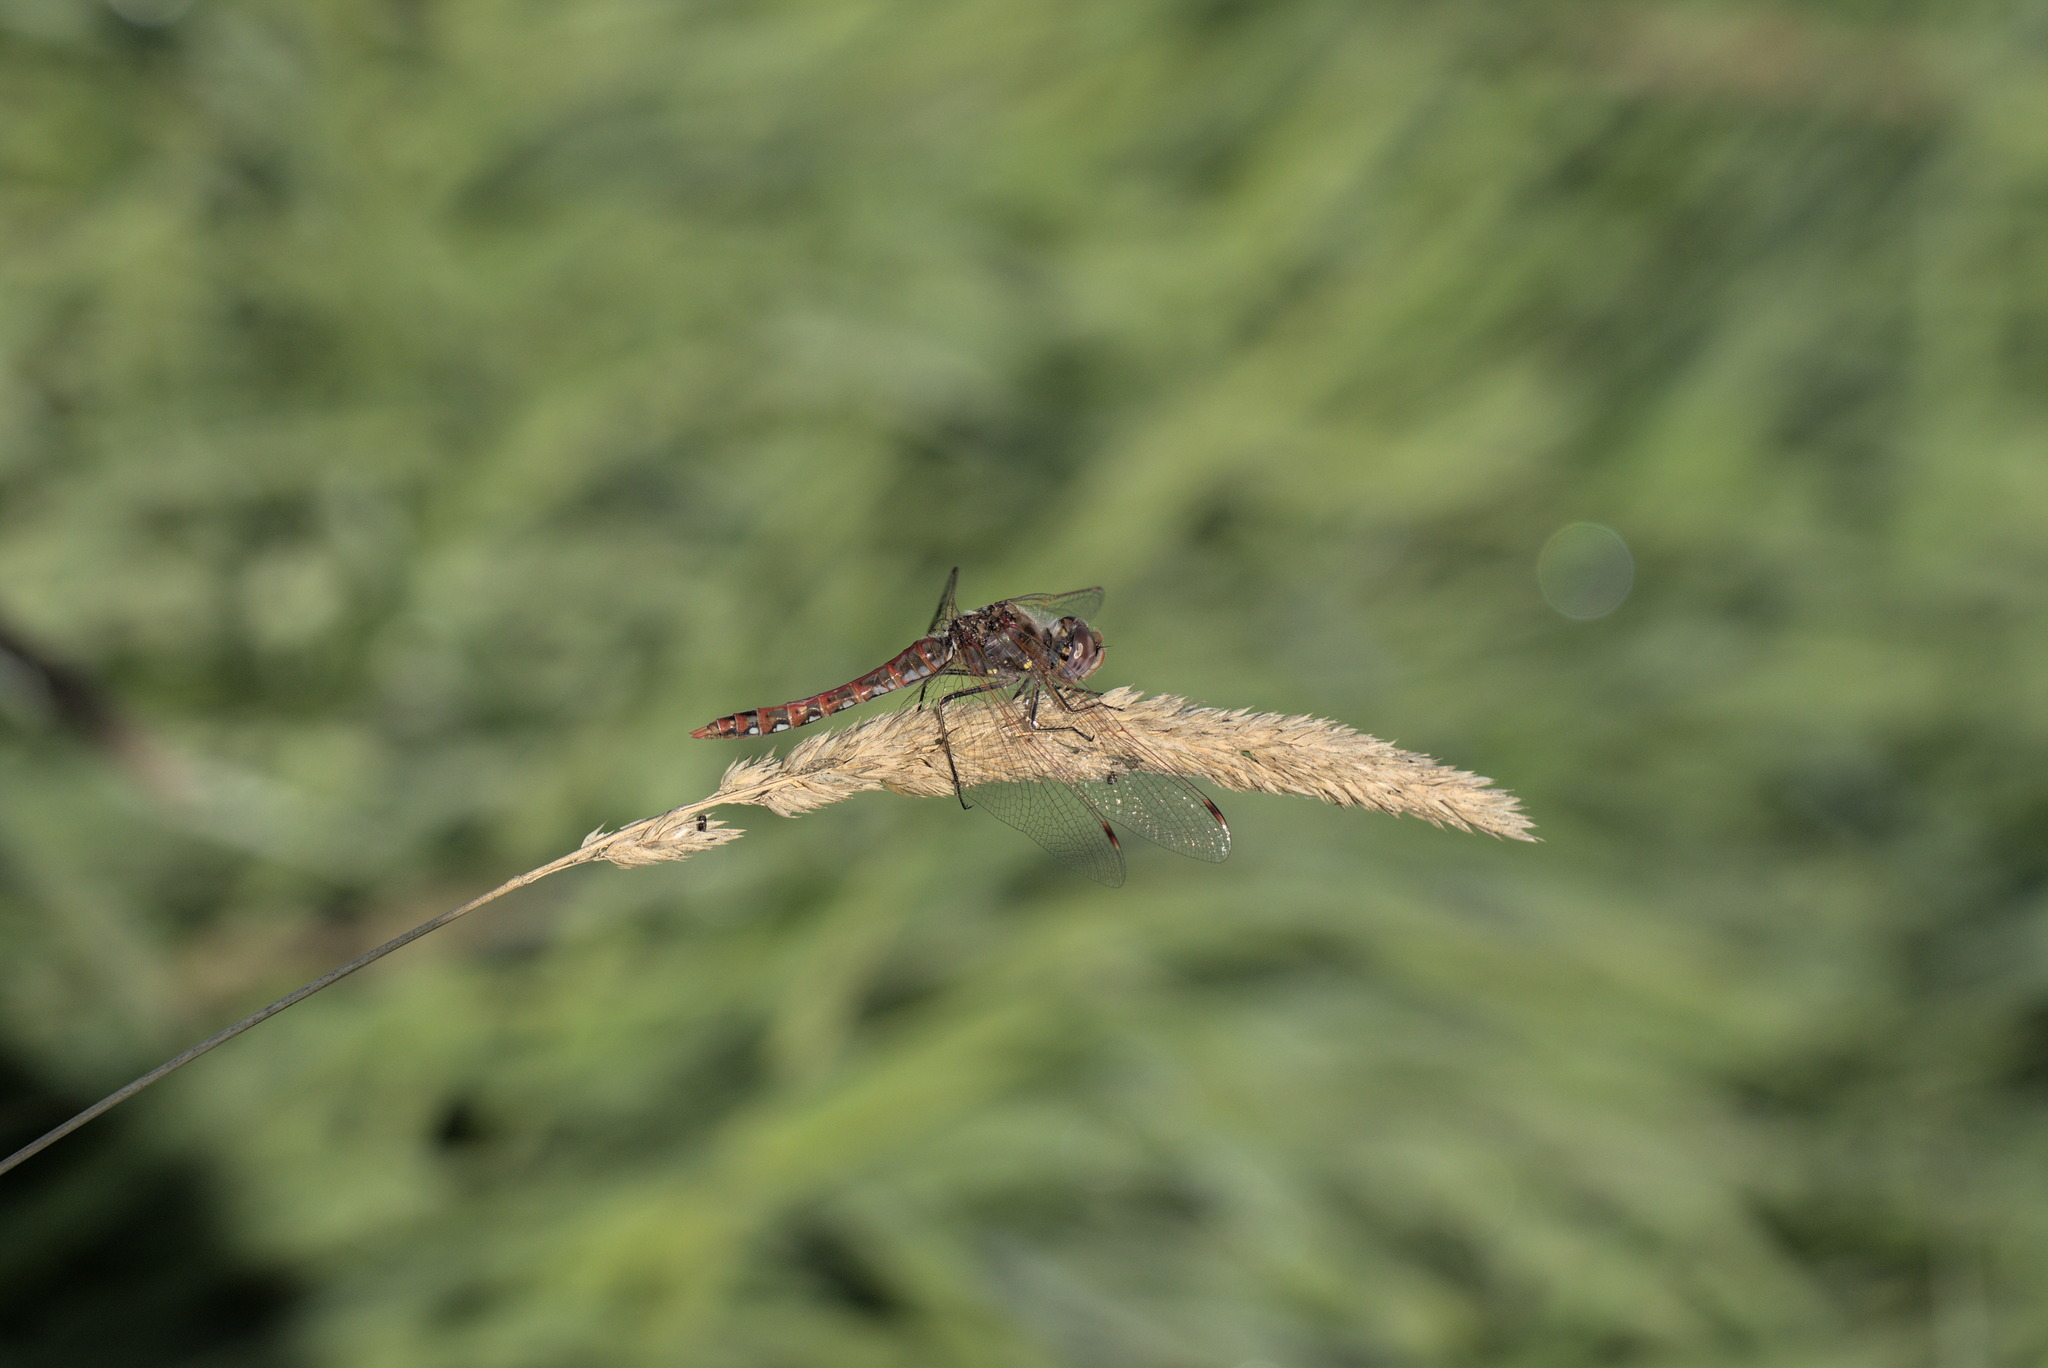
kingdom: Animalia
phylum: Arthropoda
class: Insecta
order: Odonata
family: Libellulidae
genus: Sympetrum
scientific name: Sympetrum corruptum
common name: Variegated meadowhawk
